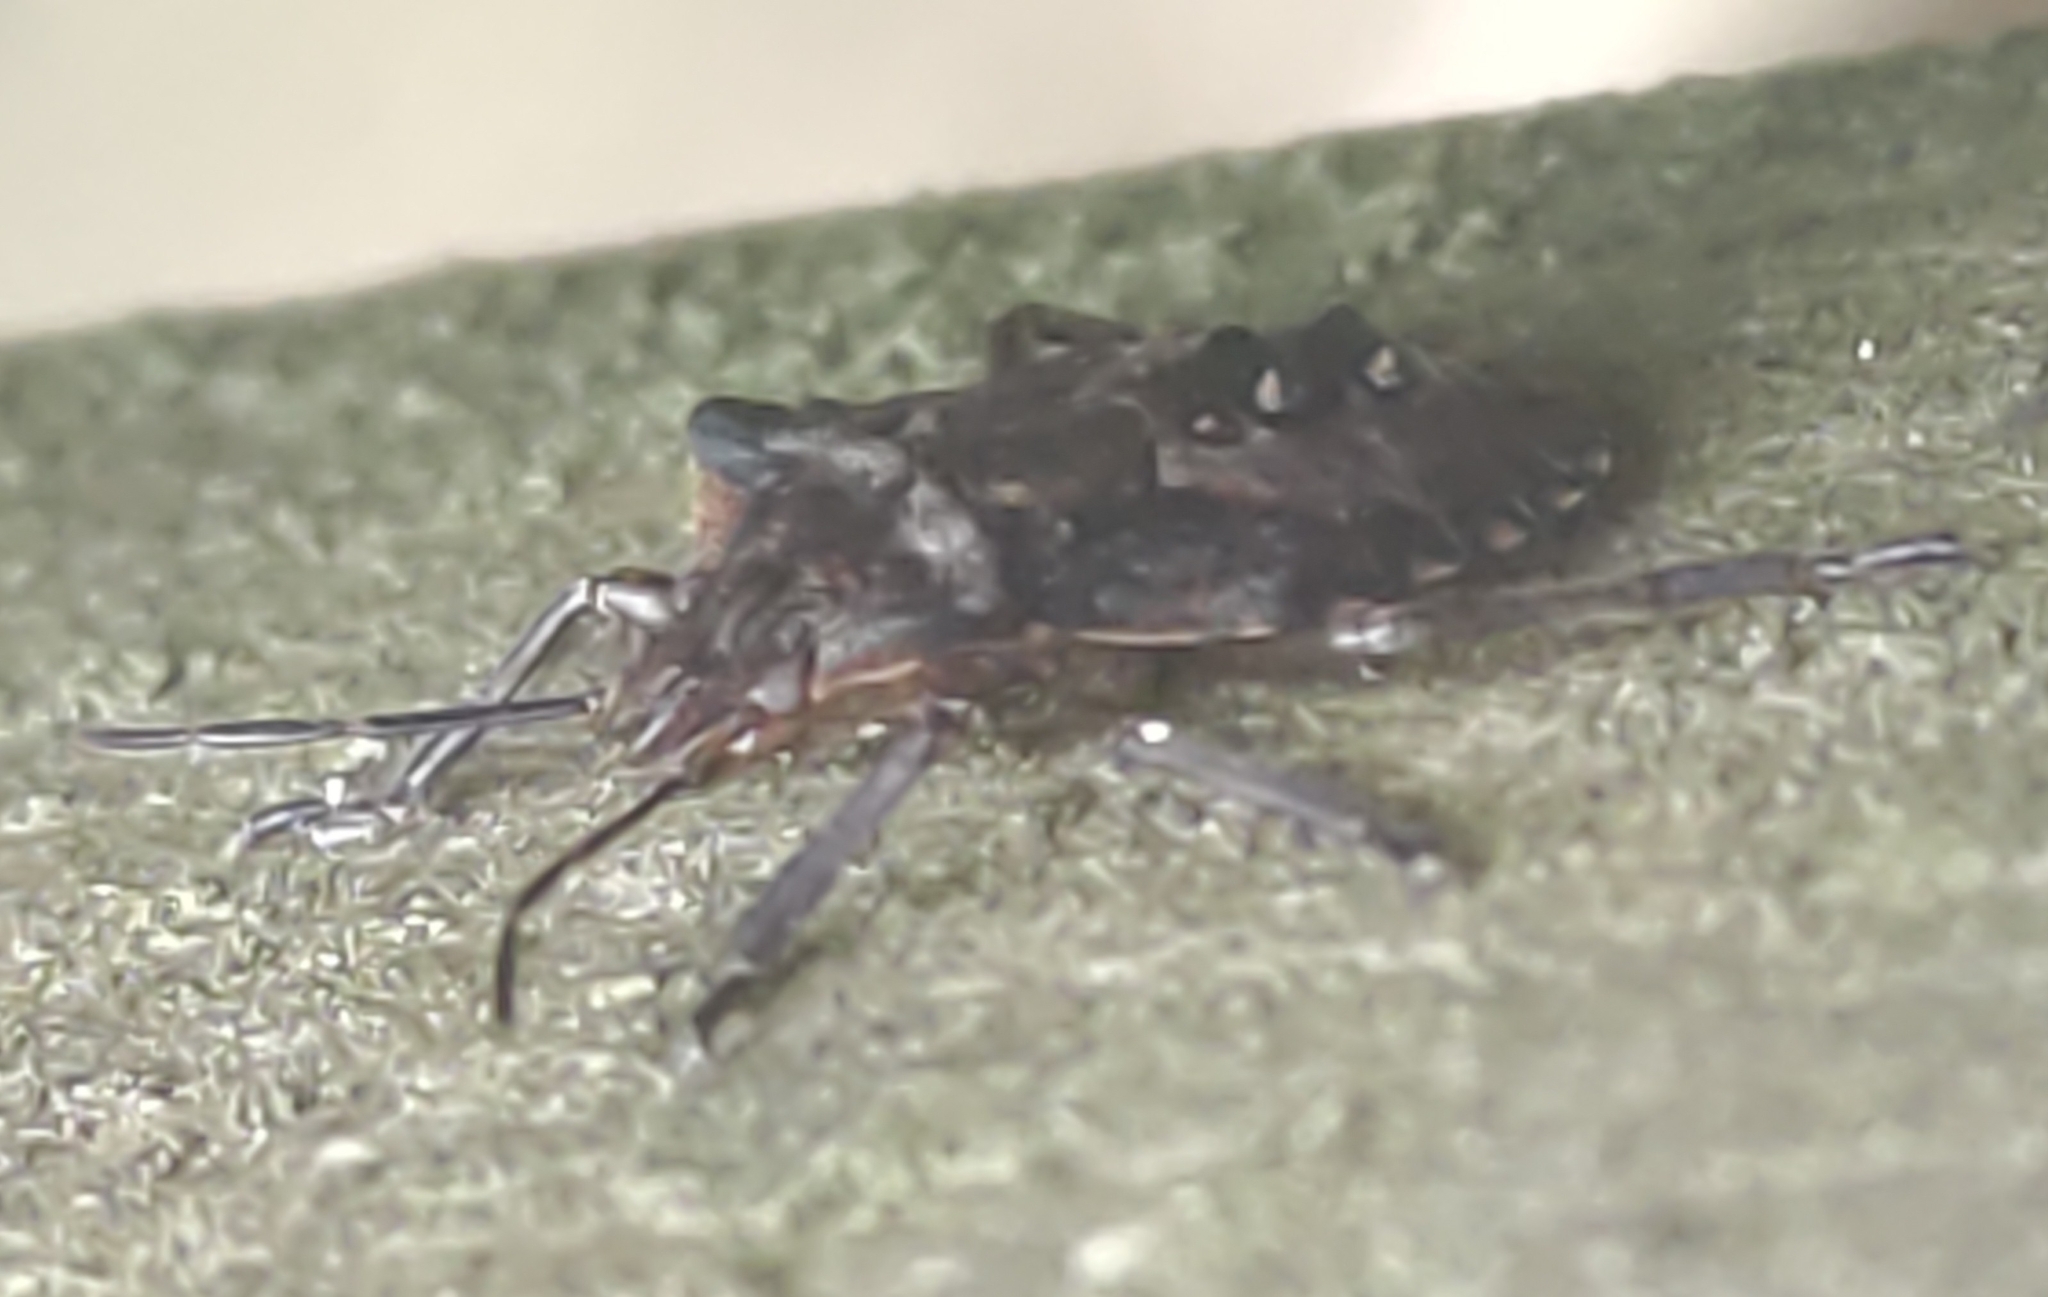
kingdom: Animalia
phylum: Arthropoda
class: Insecta
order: Hemiptera
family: Pentatomidae
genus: Pentatoma
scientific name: Pentatoma rufipes
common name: Forest bug
